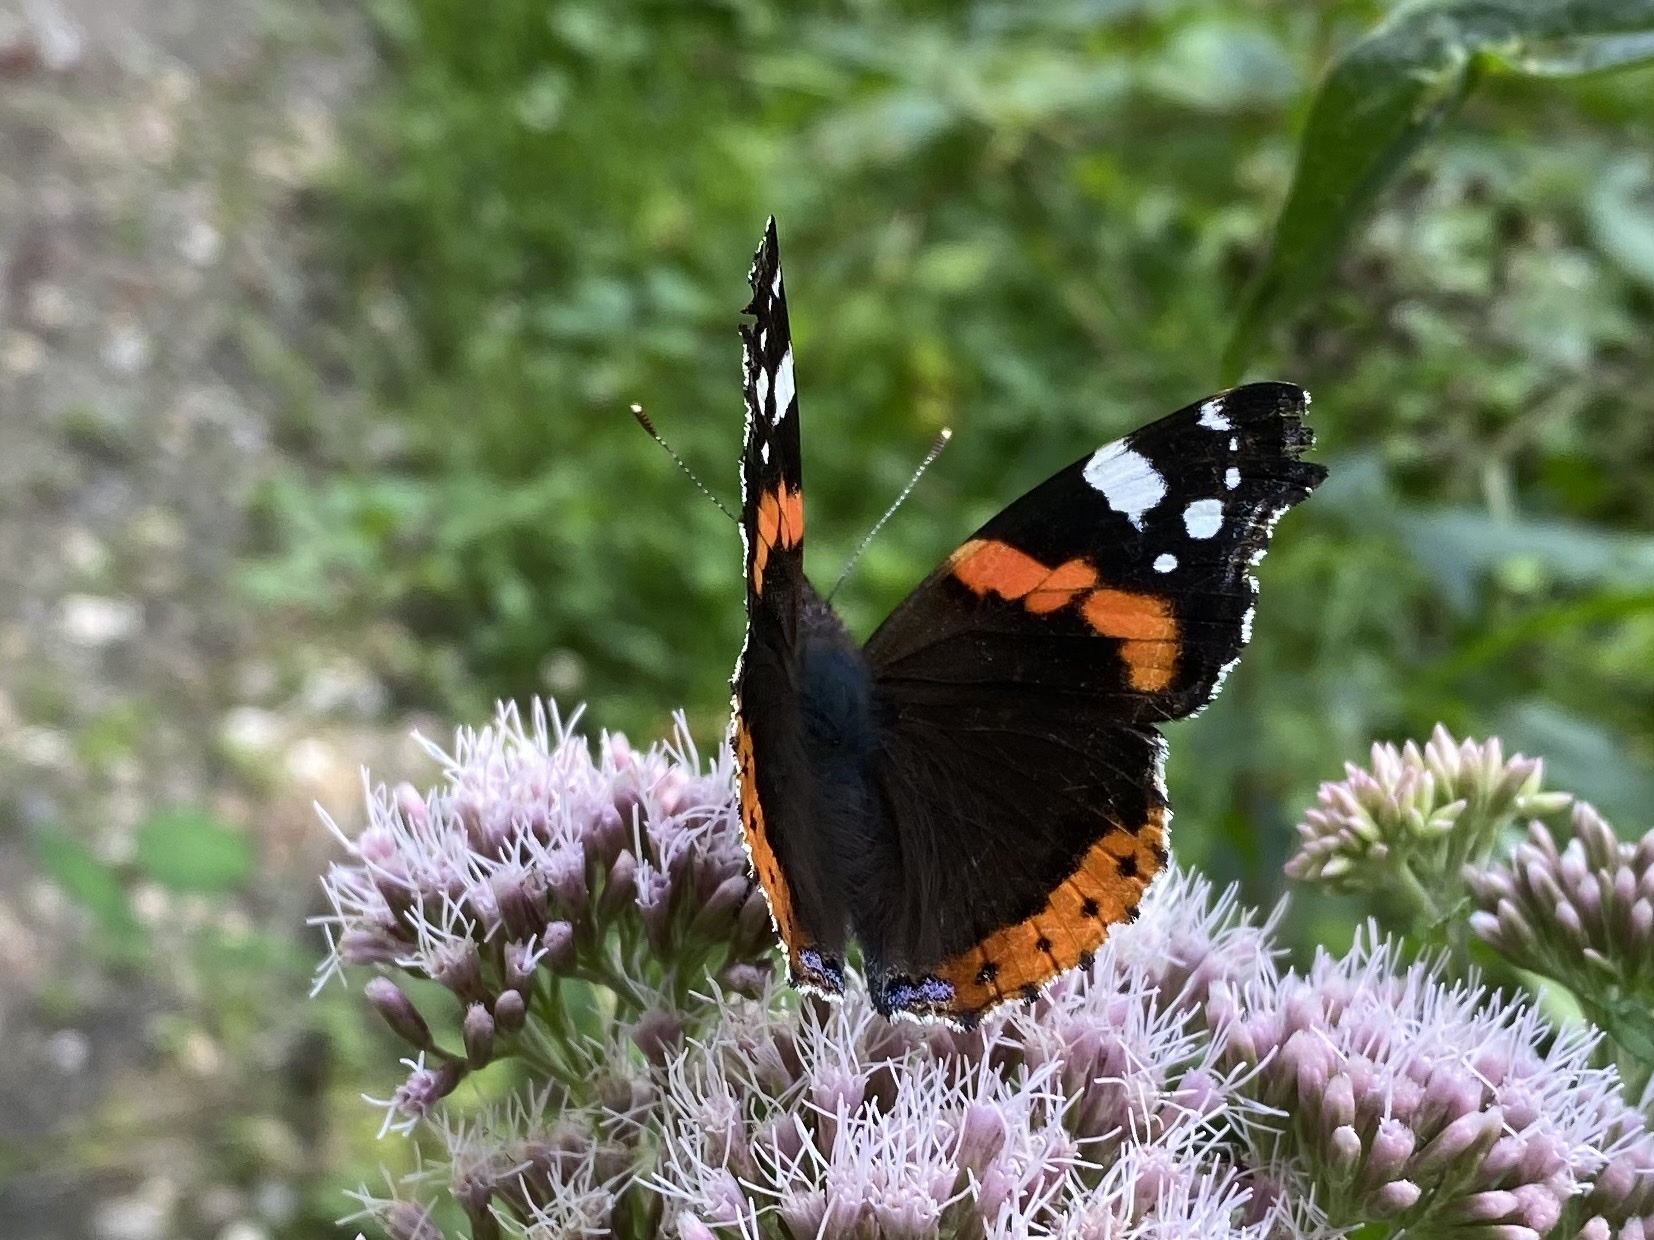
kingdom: Animalia
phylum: Arthropoda
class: Insecta
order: Lepidoptera
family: Nymphalidae
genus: Vanessa
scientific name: Vanessa atalanta
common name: Red admiral
